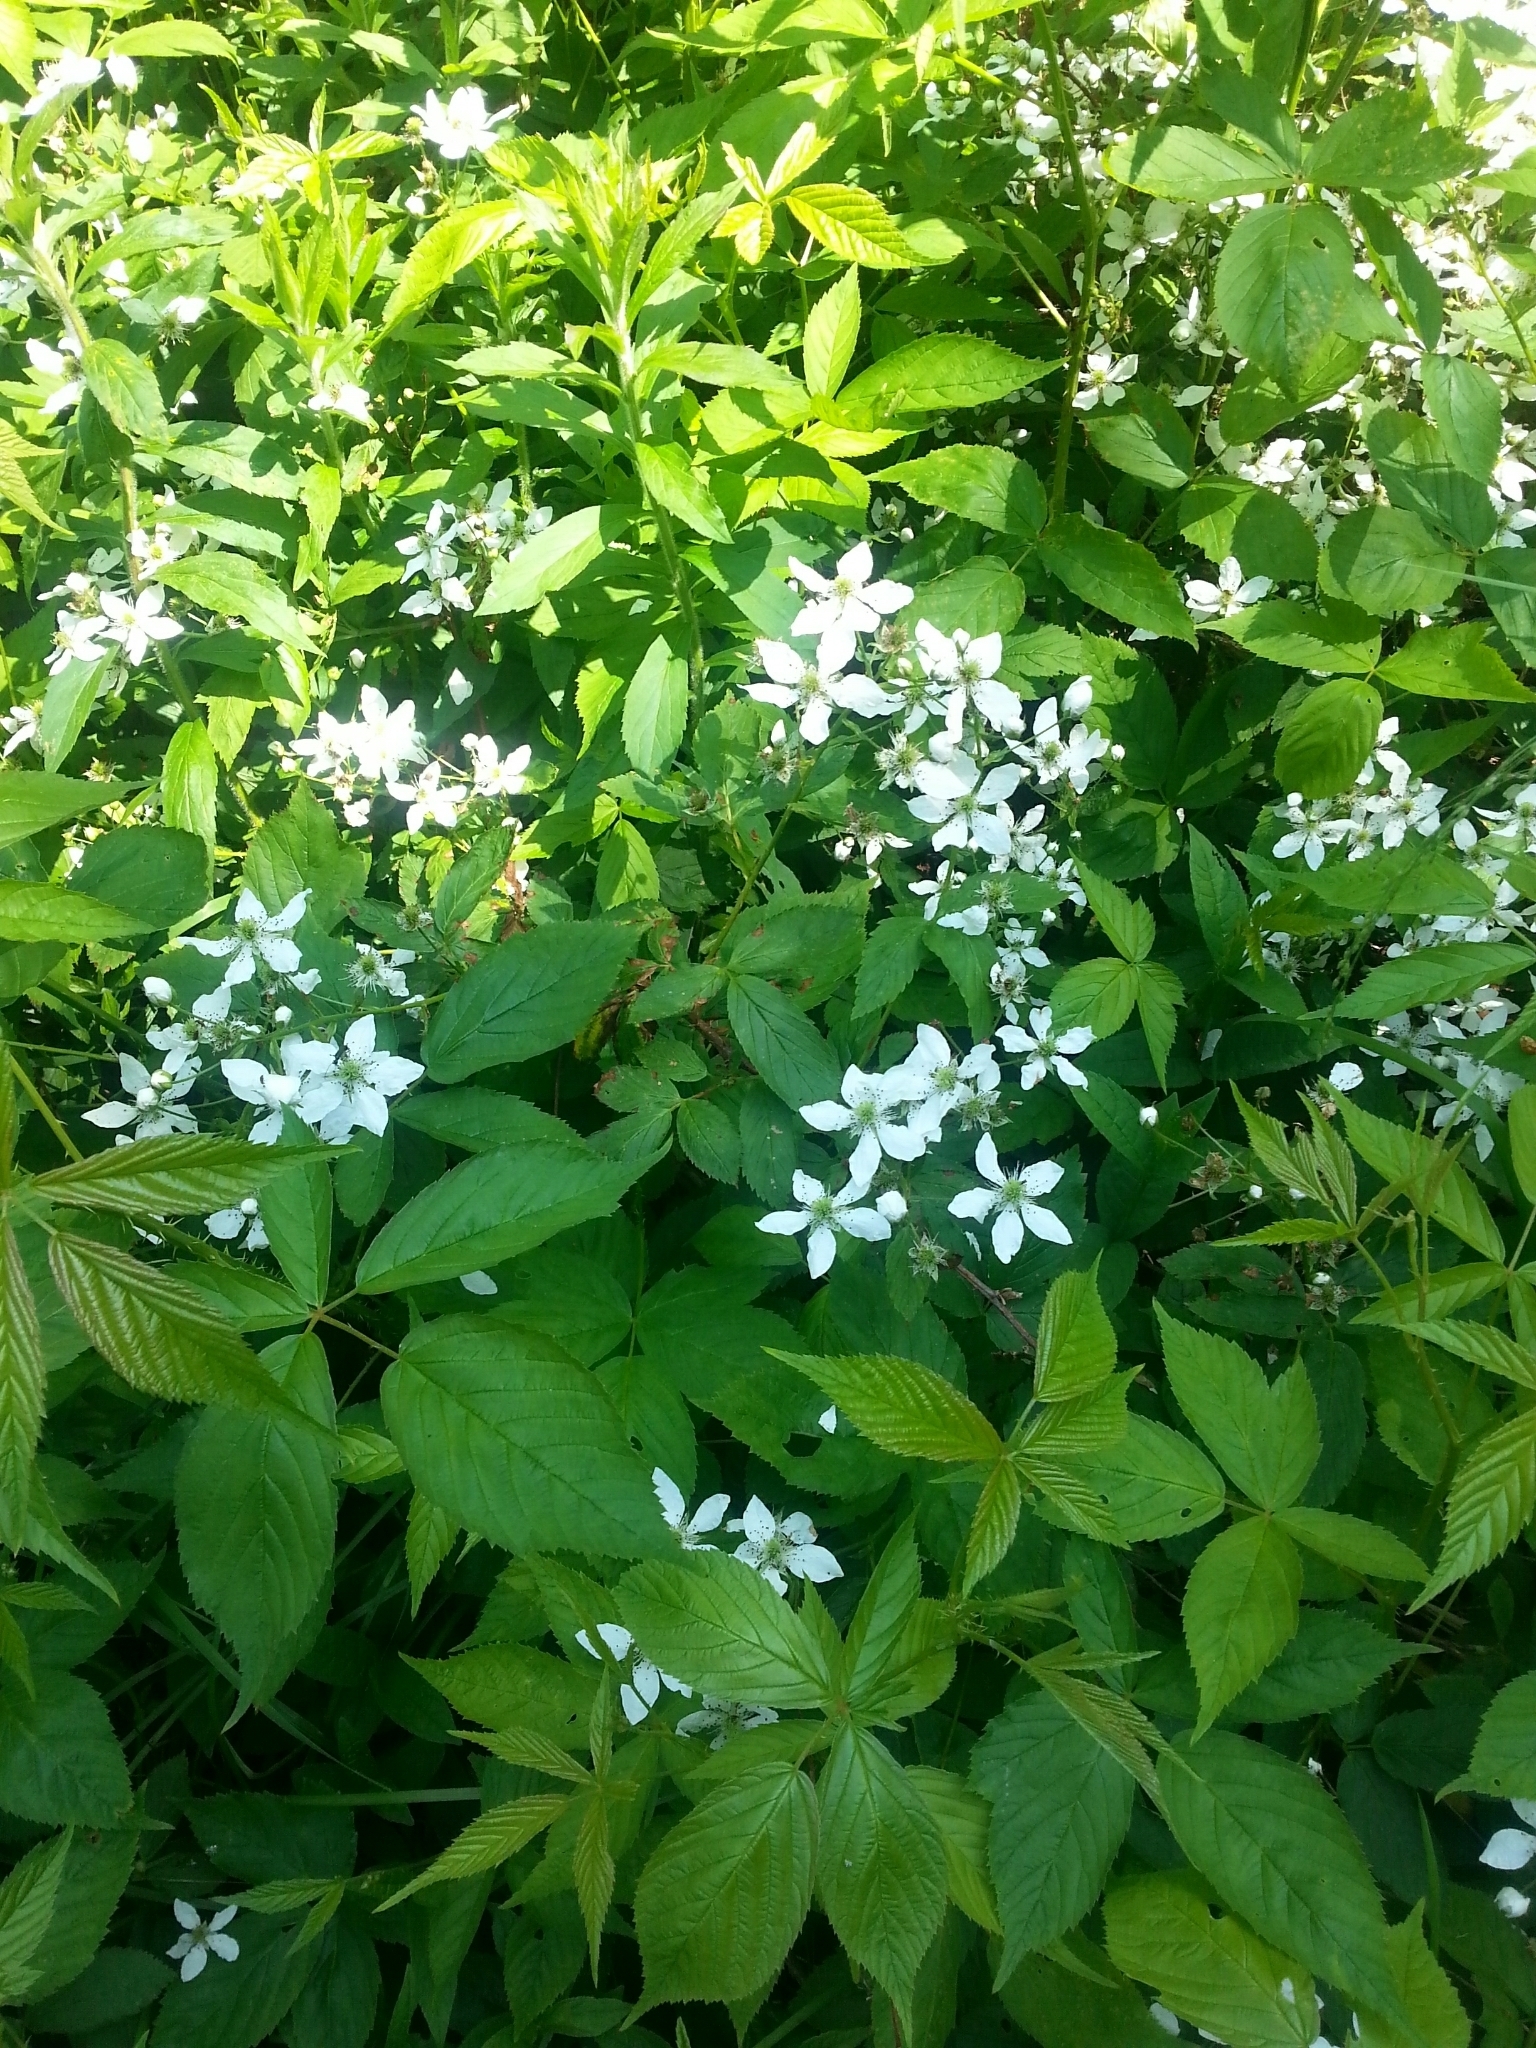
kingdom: Plantae
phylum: Tracheophyta
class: Magnoliopsida
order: Rosales
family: Rosaceae
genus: Rubus
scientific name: Rubus allegheniensis
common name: Allegheny blackberry
